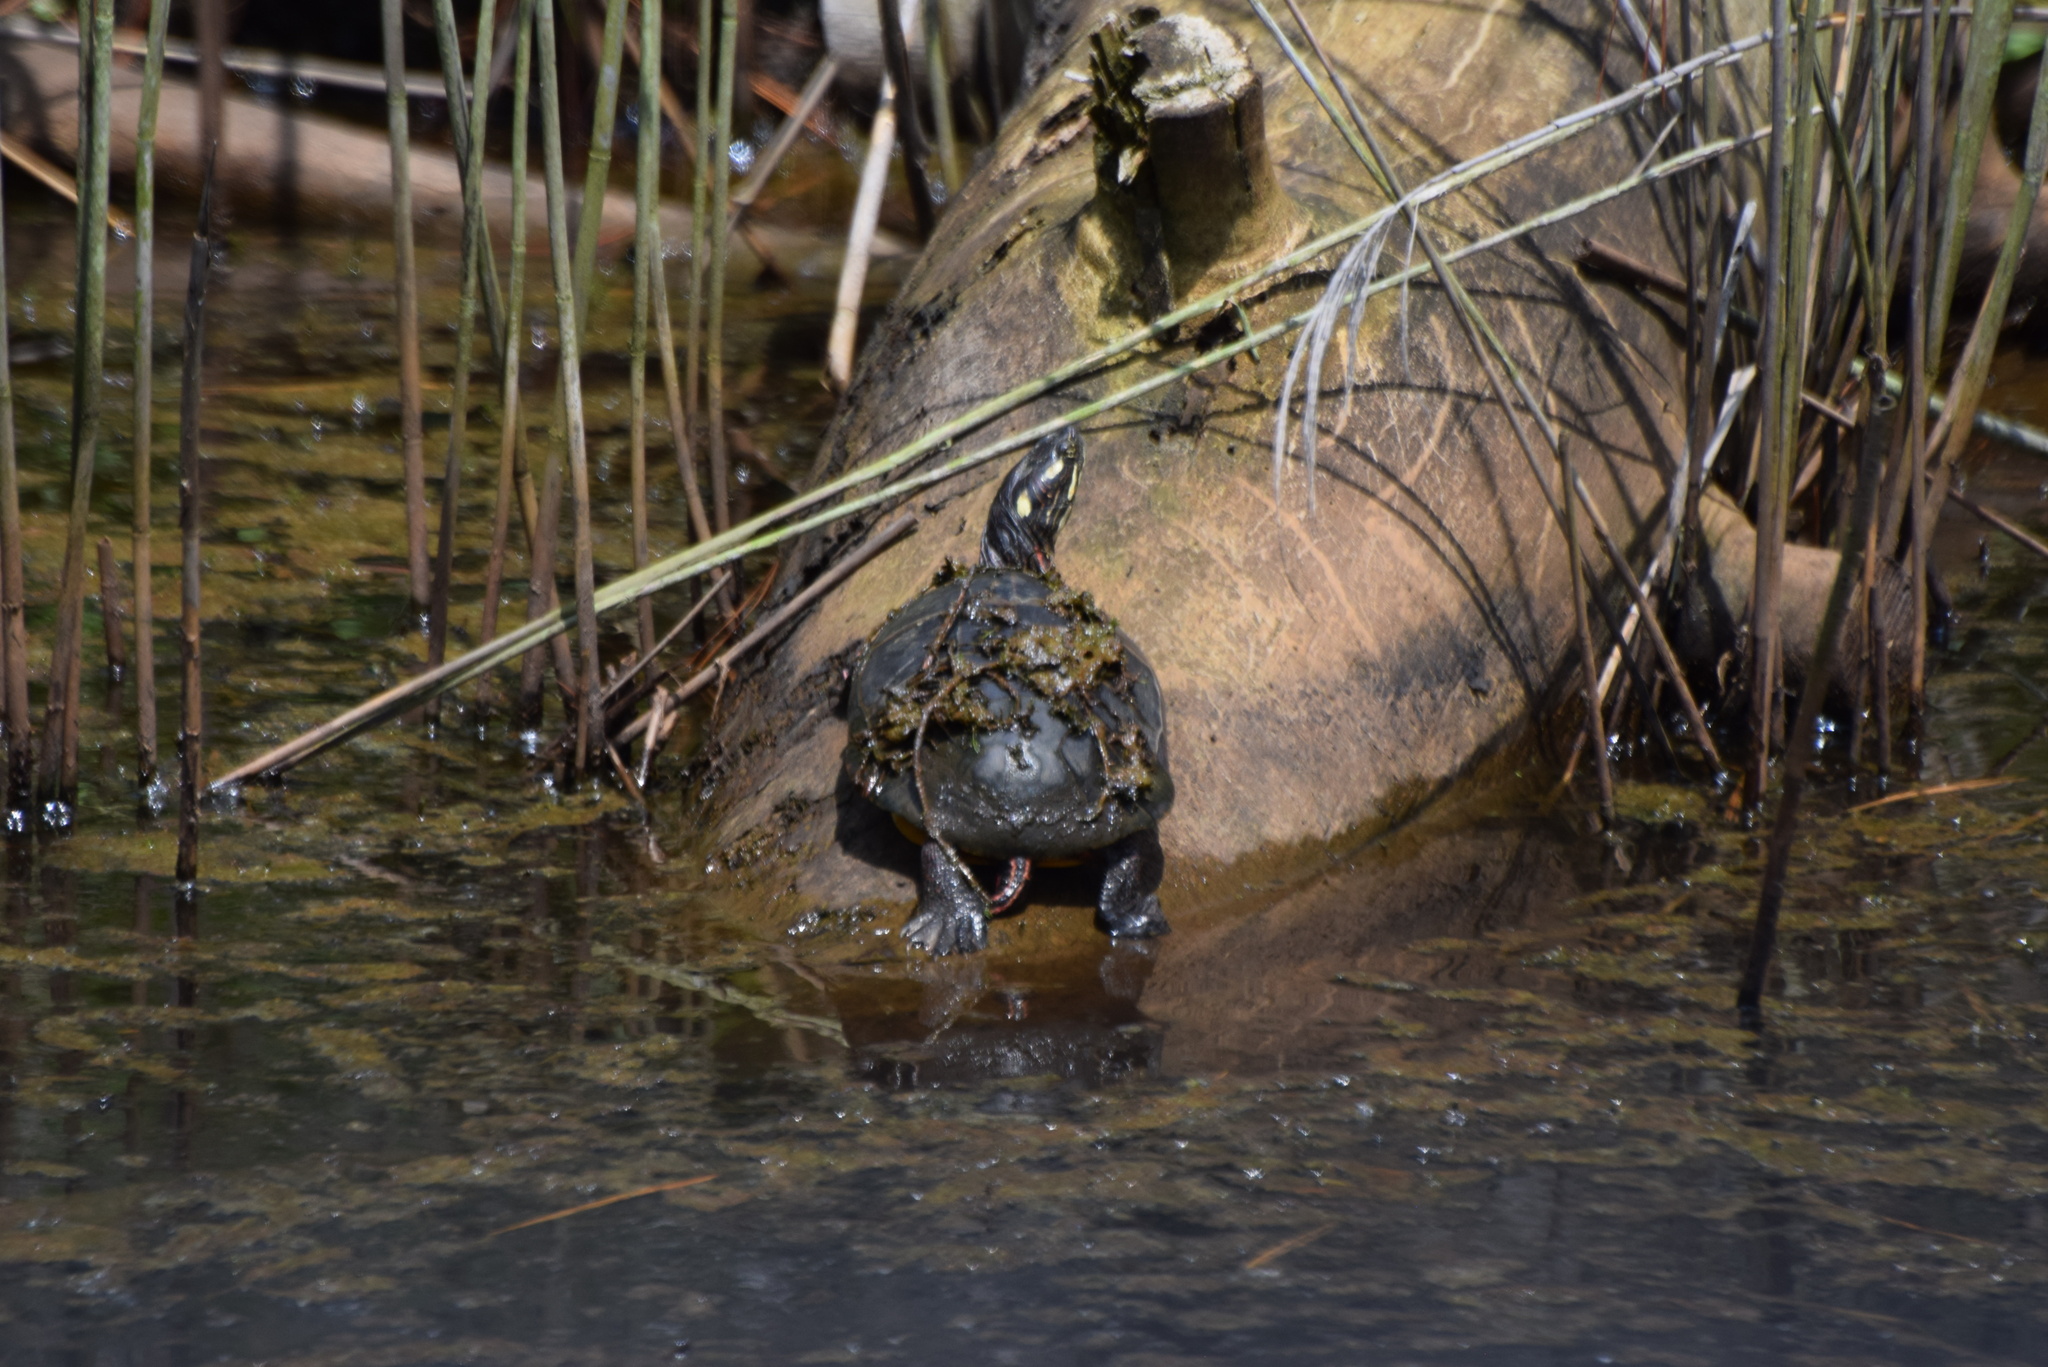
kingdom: Animalia
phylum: Chordata
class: Testudines
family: Emydidae
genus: Chrysemys
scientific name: Chrysemys picta
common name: Painted turtle
